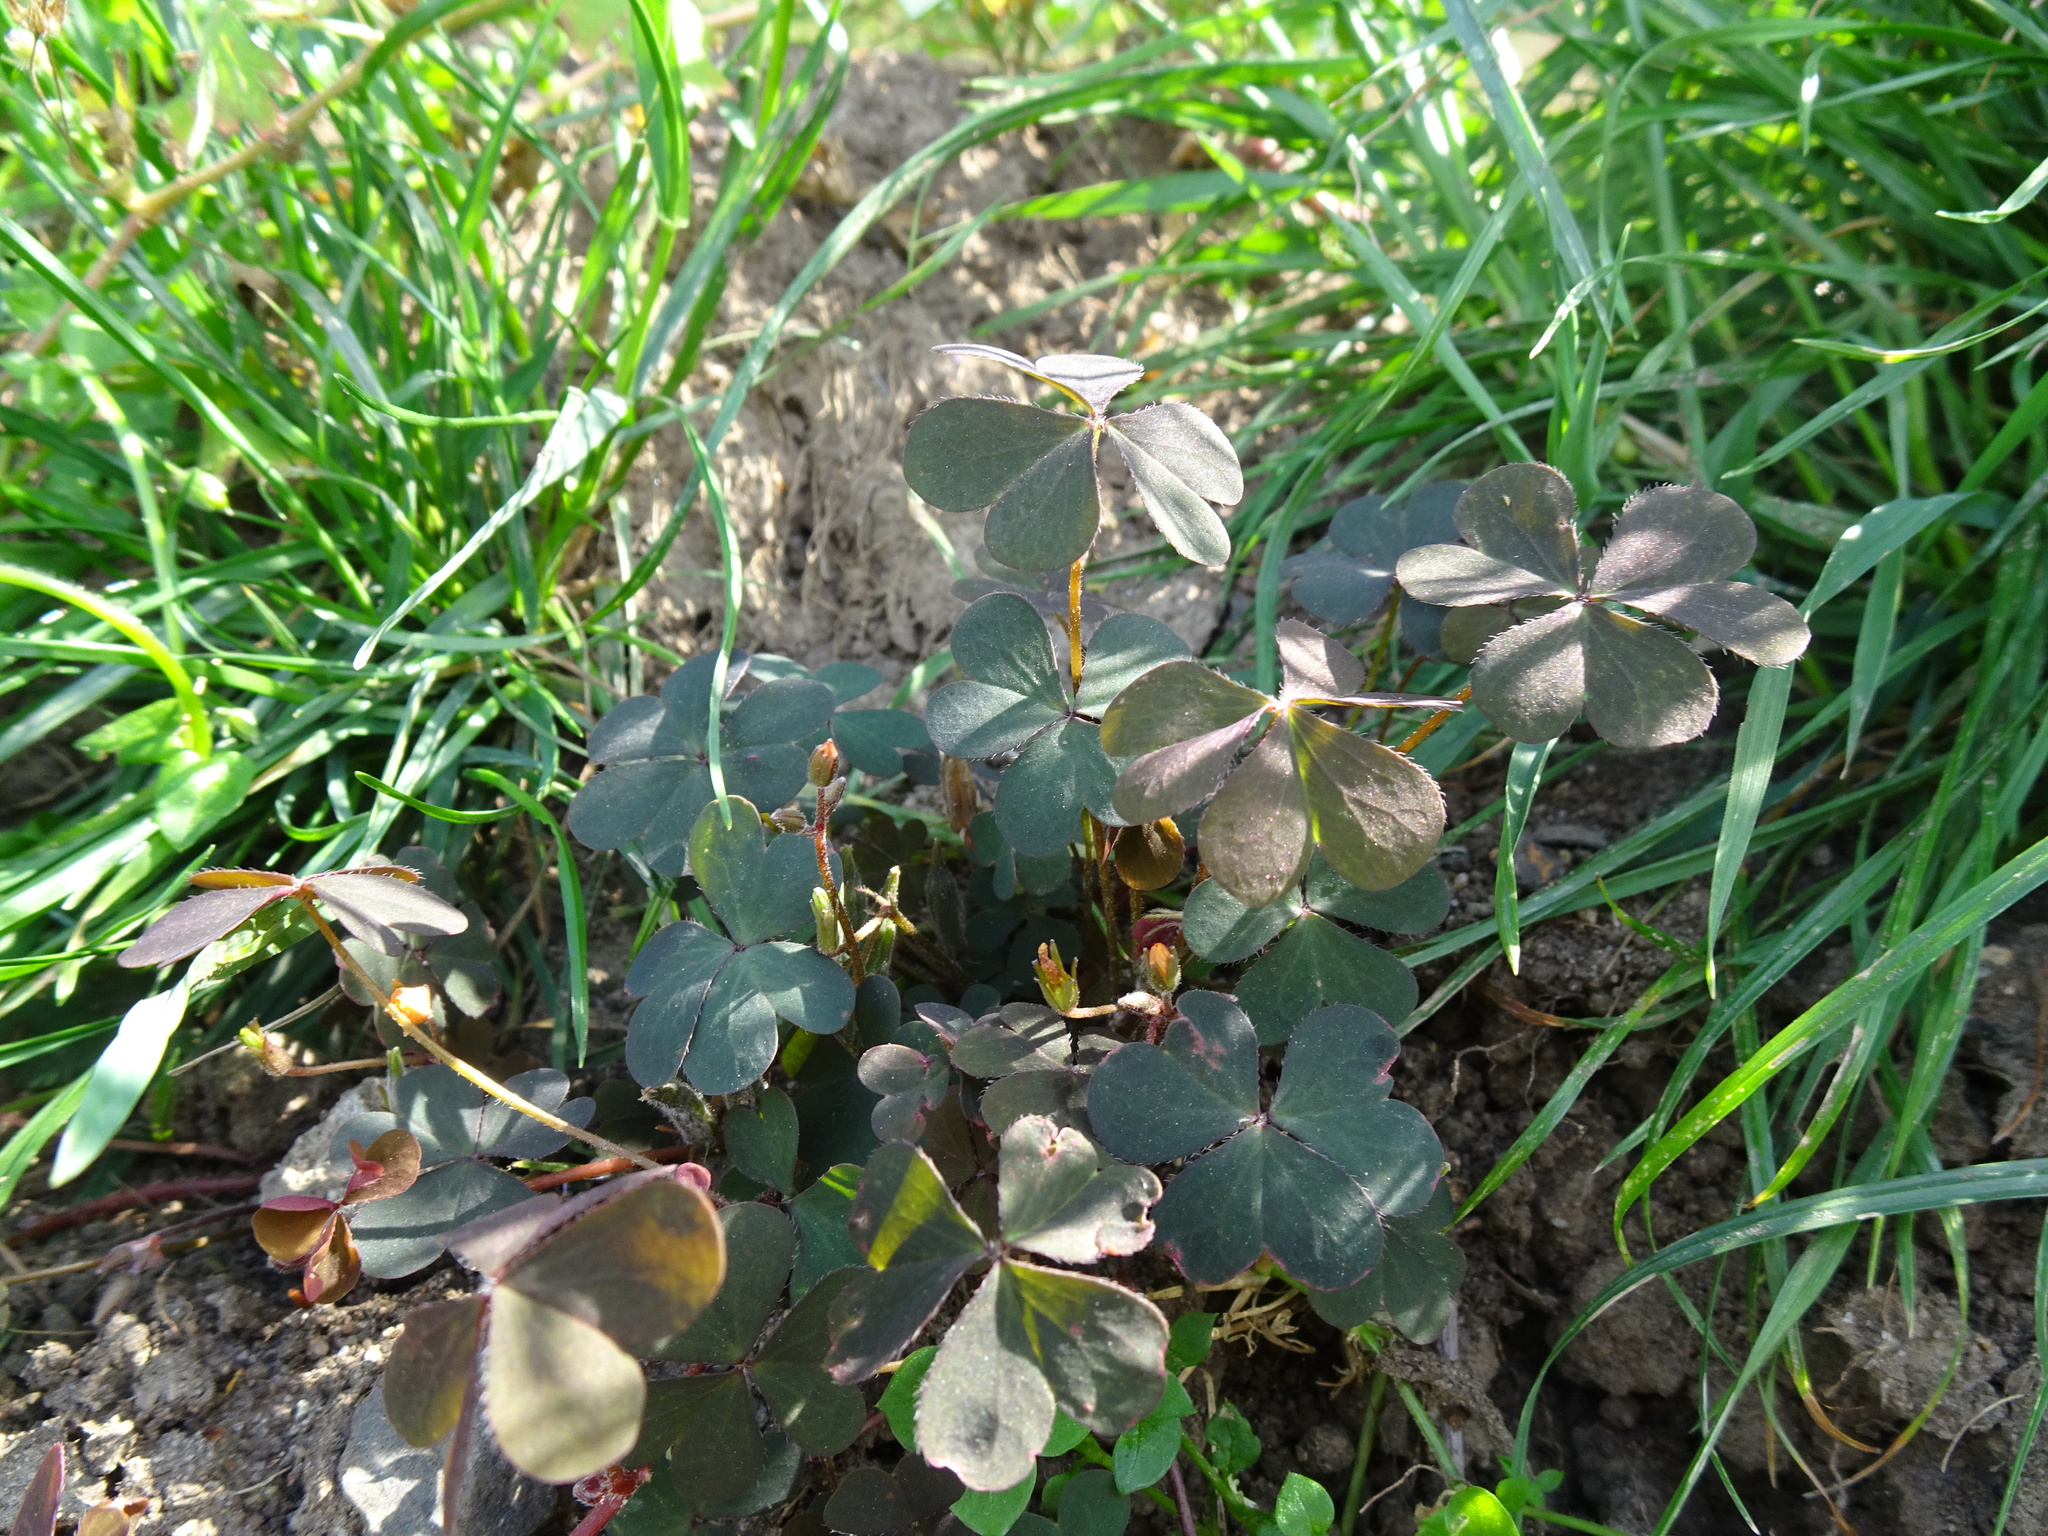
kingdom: Plantae
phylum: Tracheophyta
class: Magnoliopsida
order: Oxalidales
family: Oxalidaceae
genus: Oxalis
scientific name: Oxalis corniculata
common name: Procumbent yellow-sorrel
